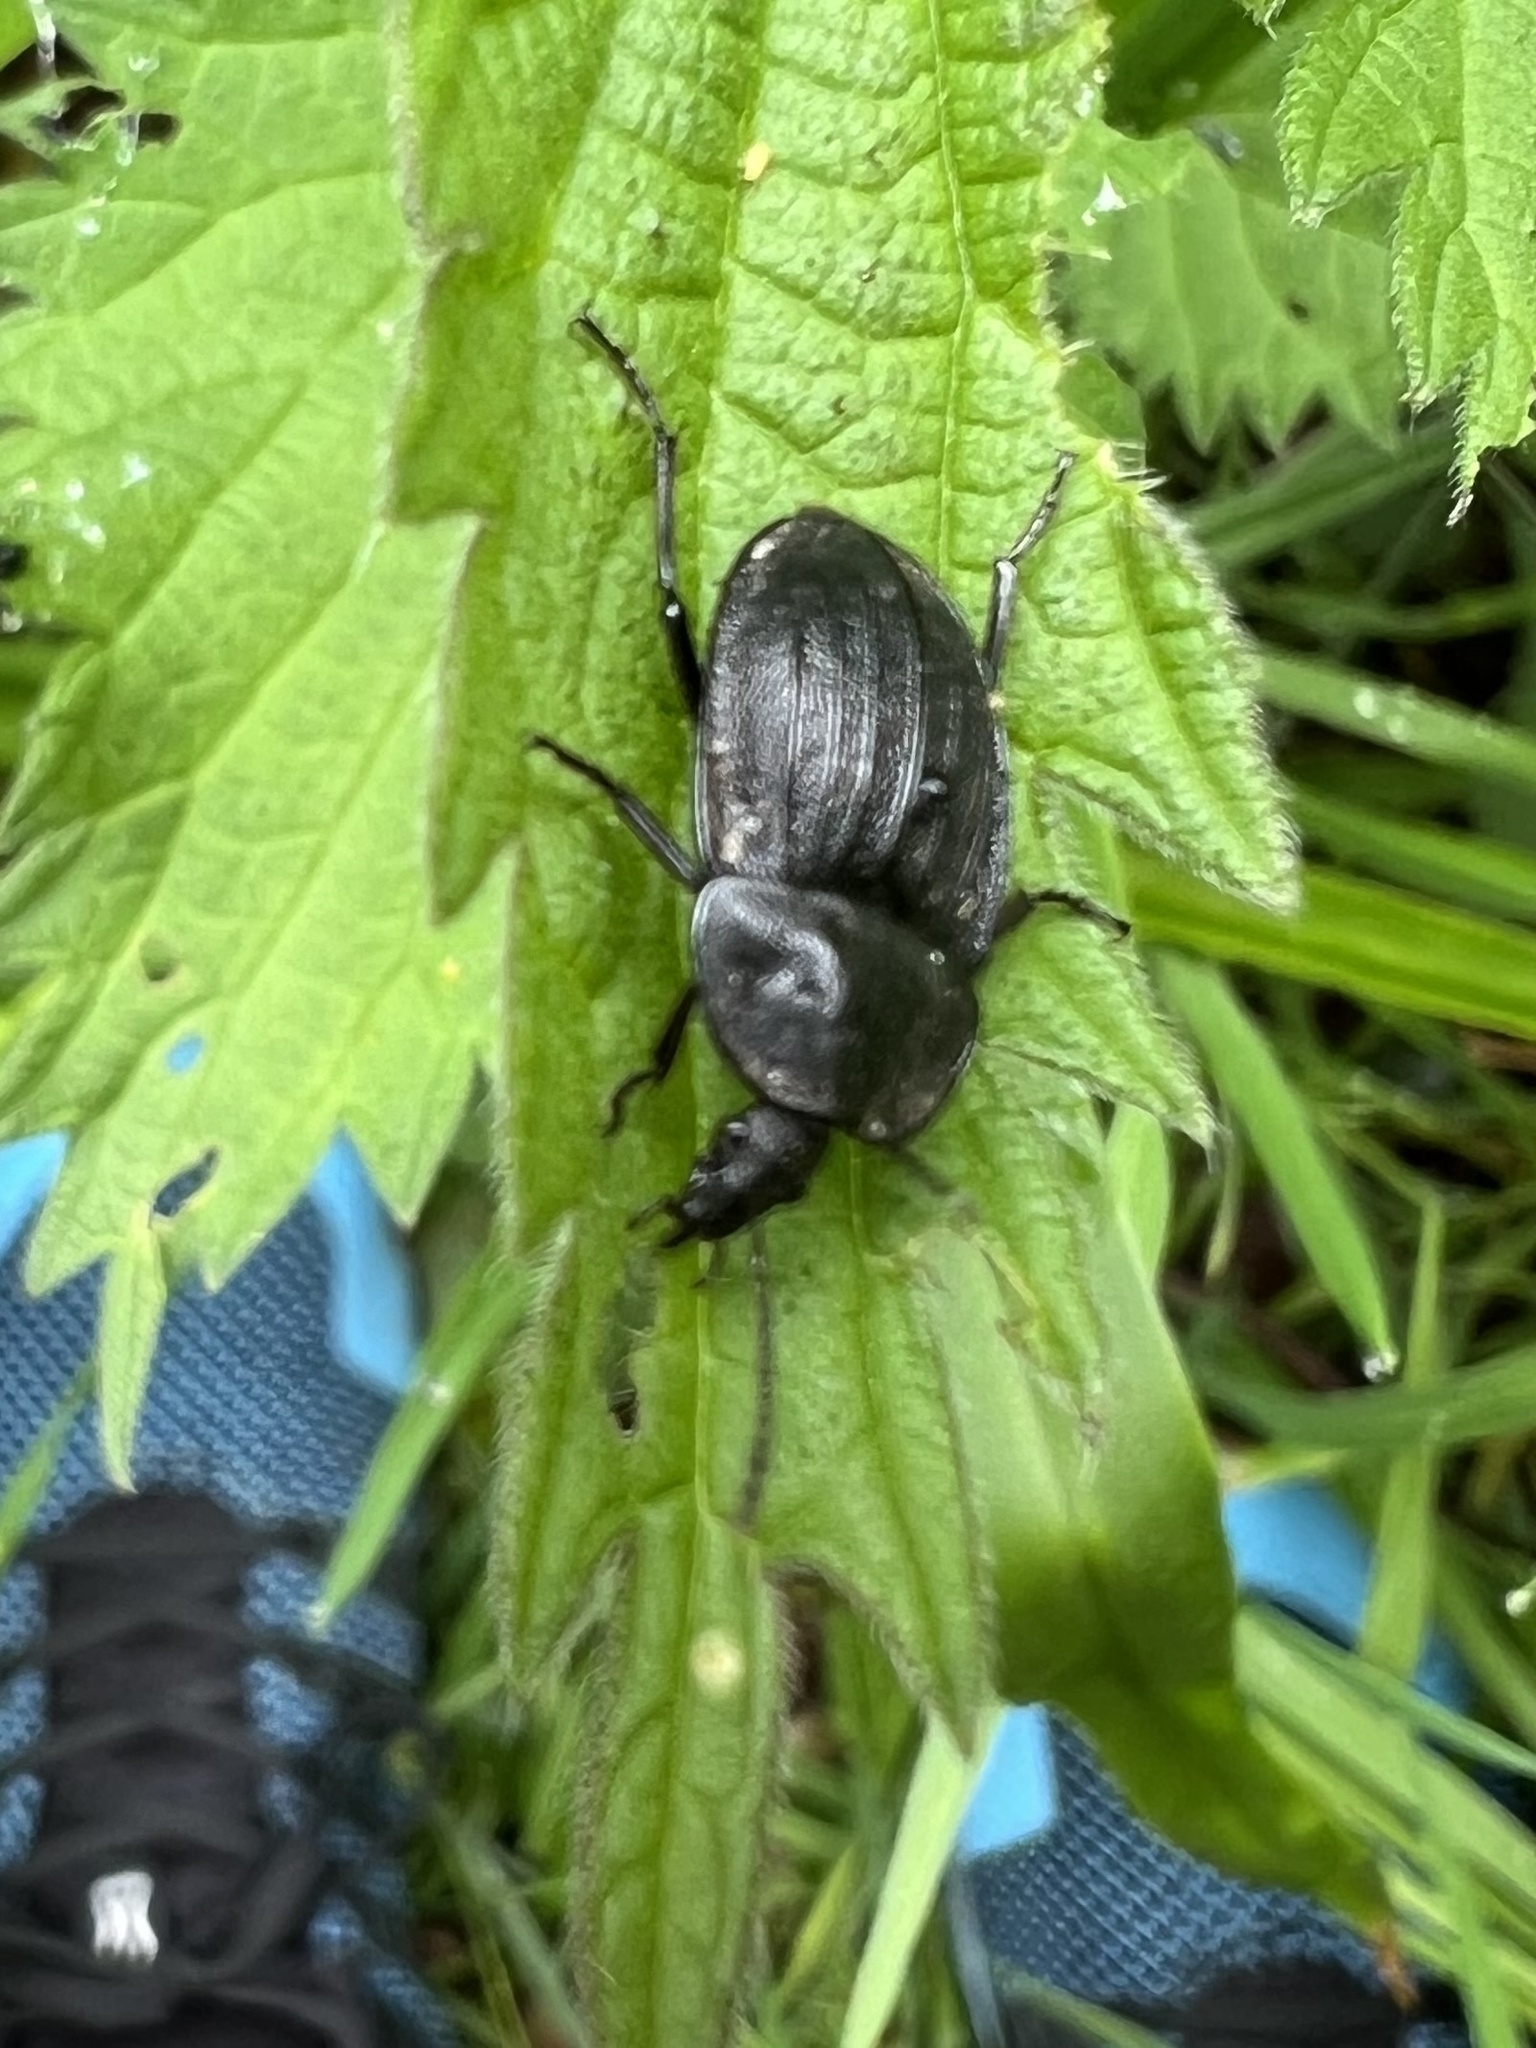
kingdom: Animalia
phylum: Arthropoda
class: Insecta
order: Coleoptera
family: Staphylinidae
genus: Silpha
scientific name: Silpha atrata
